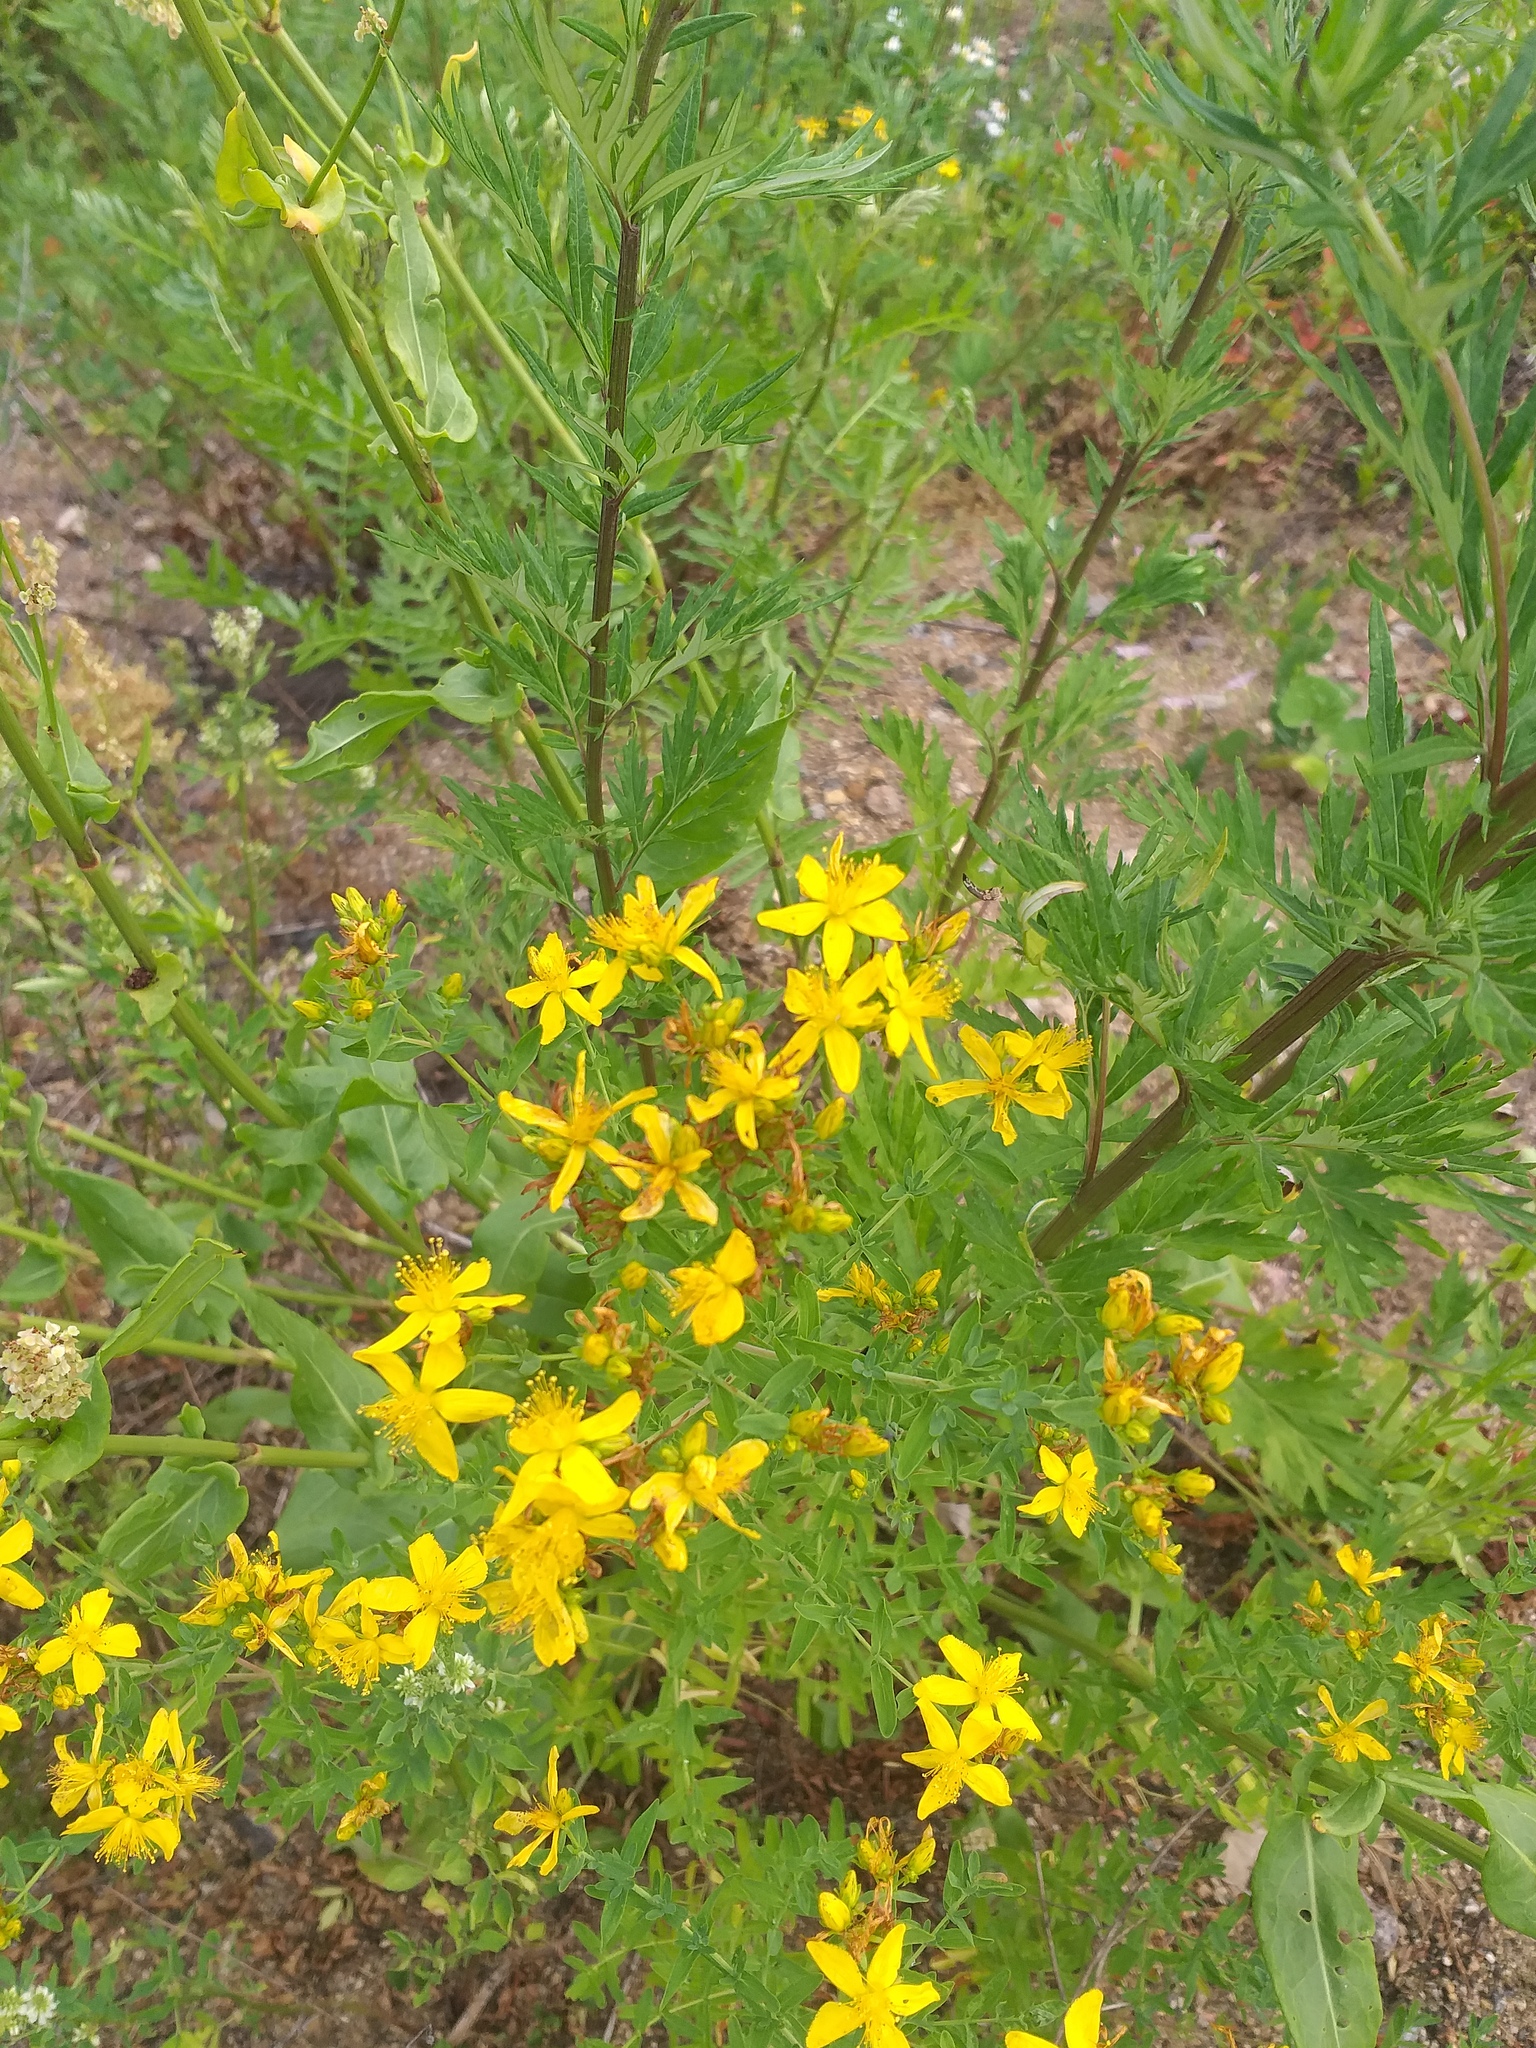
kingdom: Plantae
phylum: Tracheophyta
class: Magnoliopsida
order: Malpighiales
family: Hypericaceae
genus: Hypericum
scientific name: Hypericum perforatum
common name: Common st. johnswort
